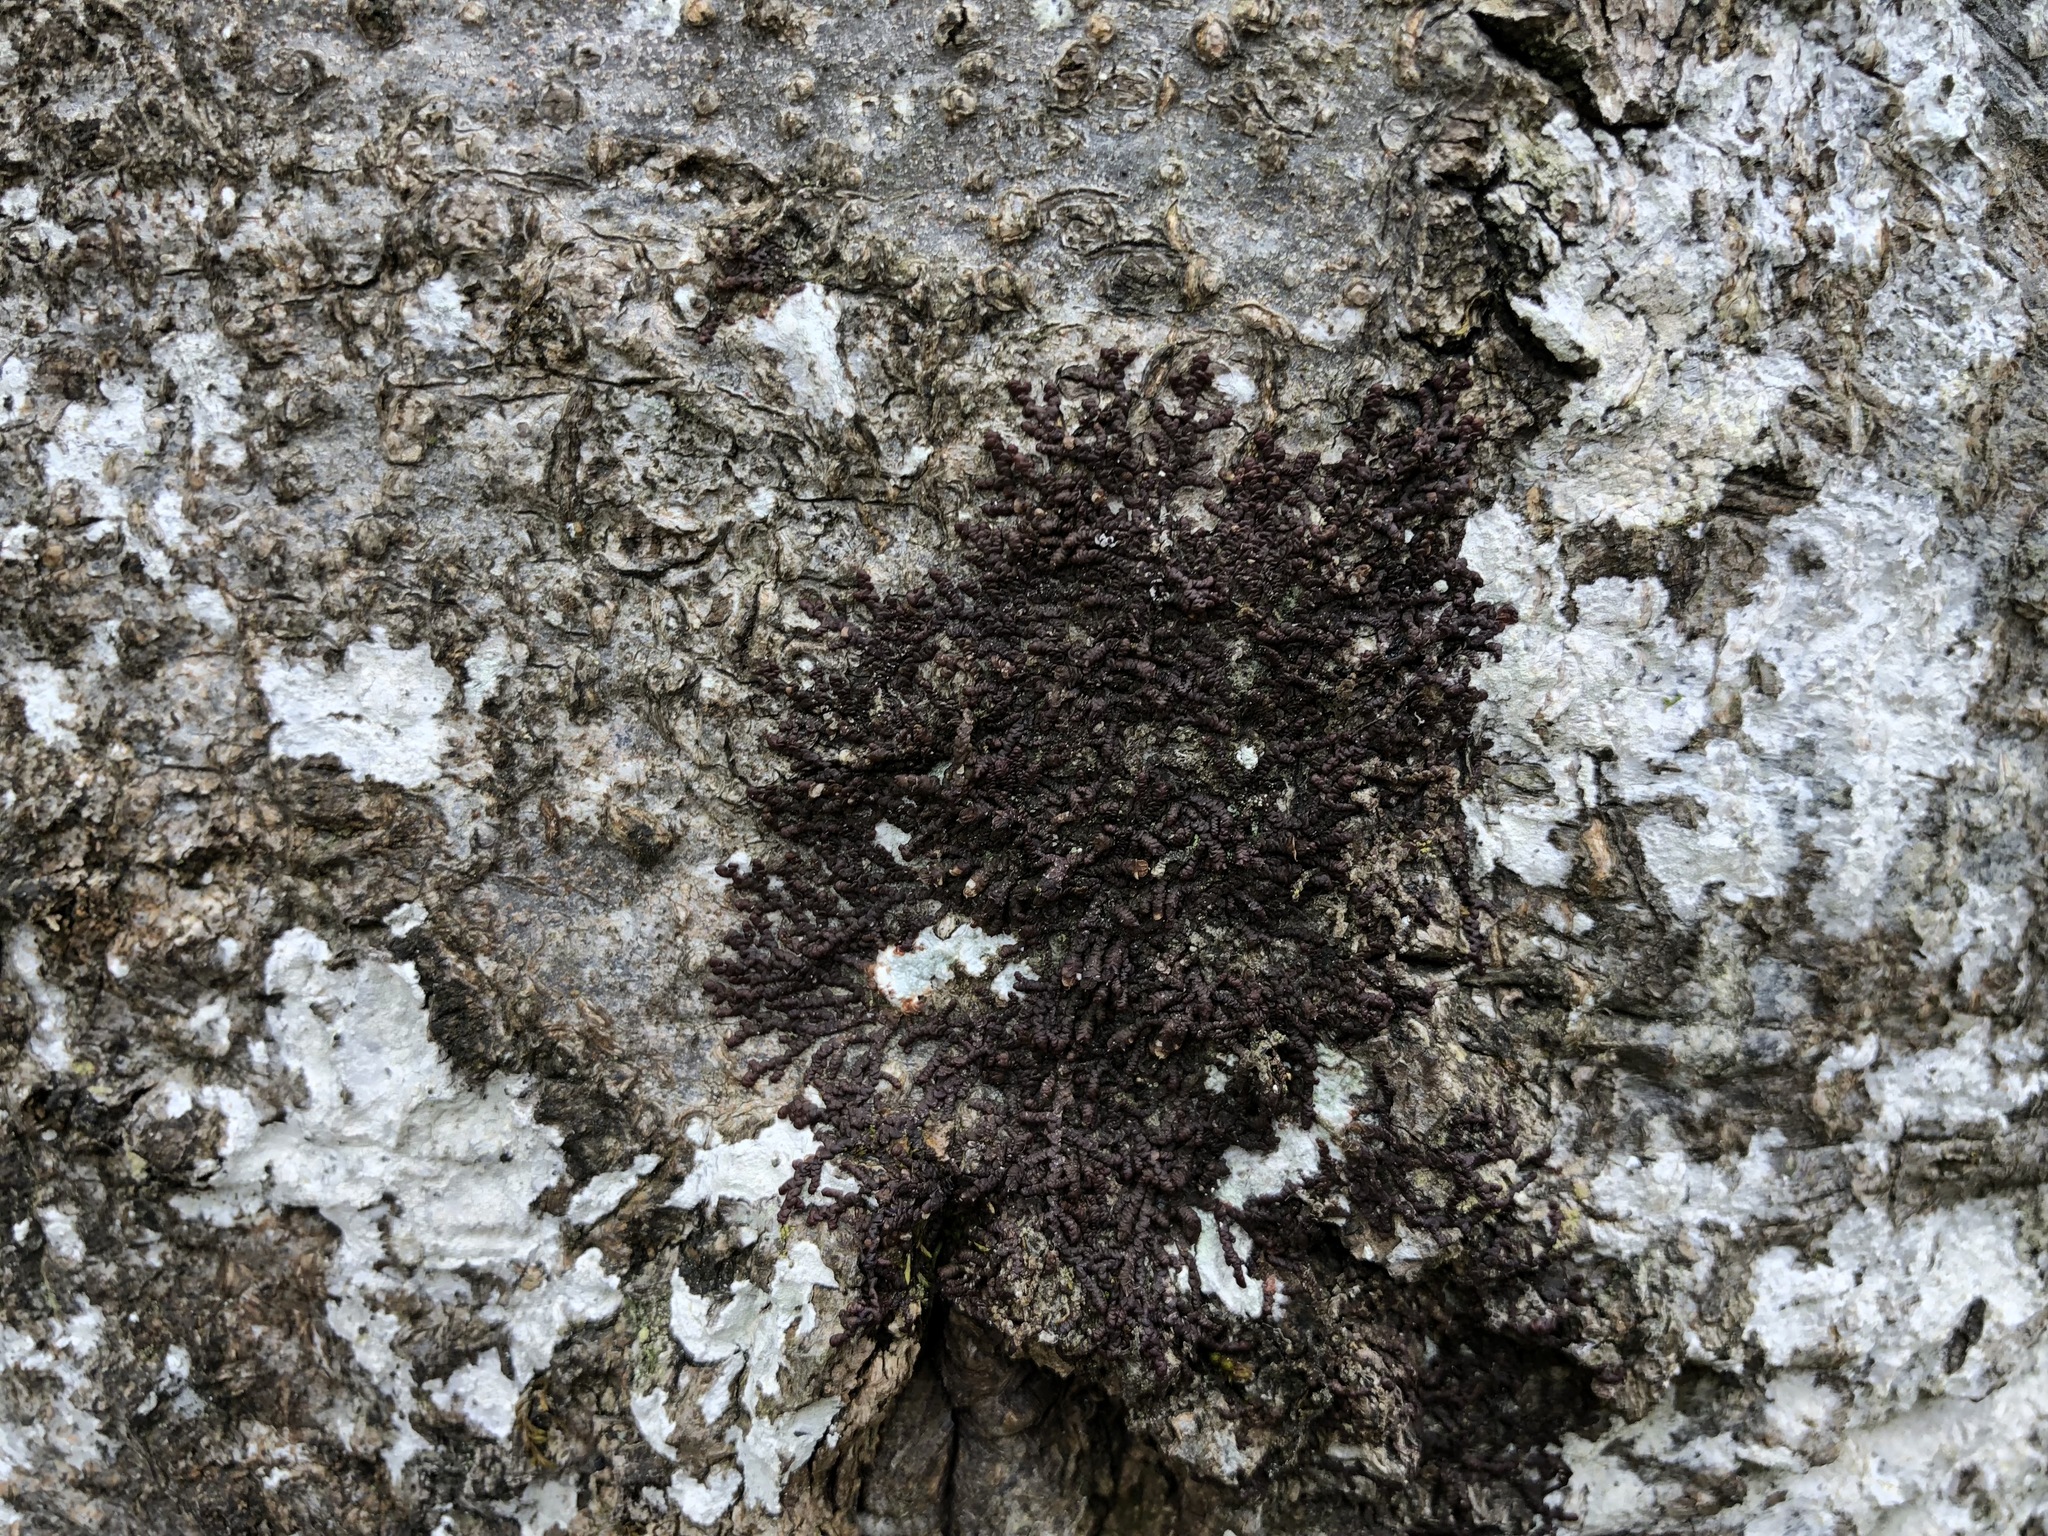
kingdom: Plantae
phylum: Marchantiophyta
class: Jungermanniopsida
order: Porellales
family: Frullaniaceae
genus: Frullania
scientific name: Frullania dilatata
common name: Dilated scalewort
